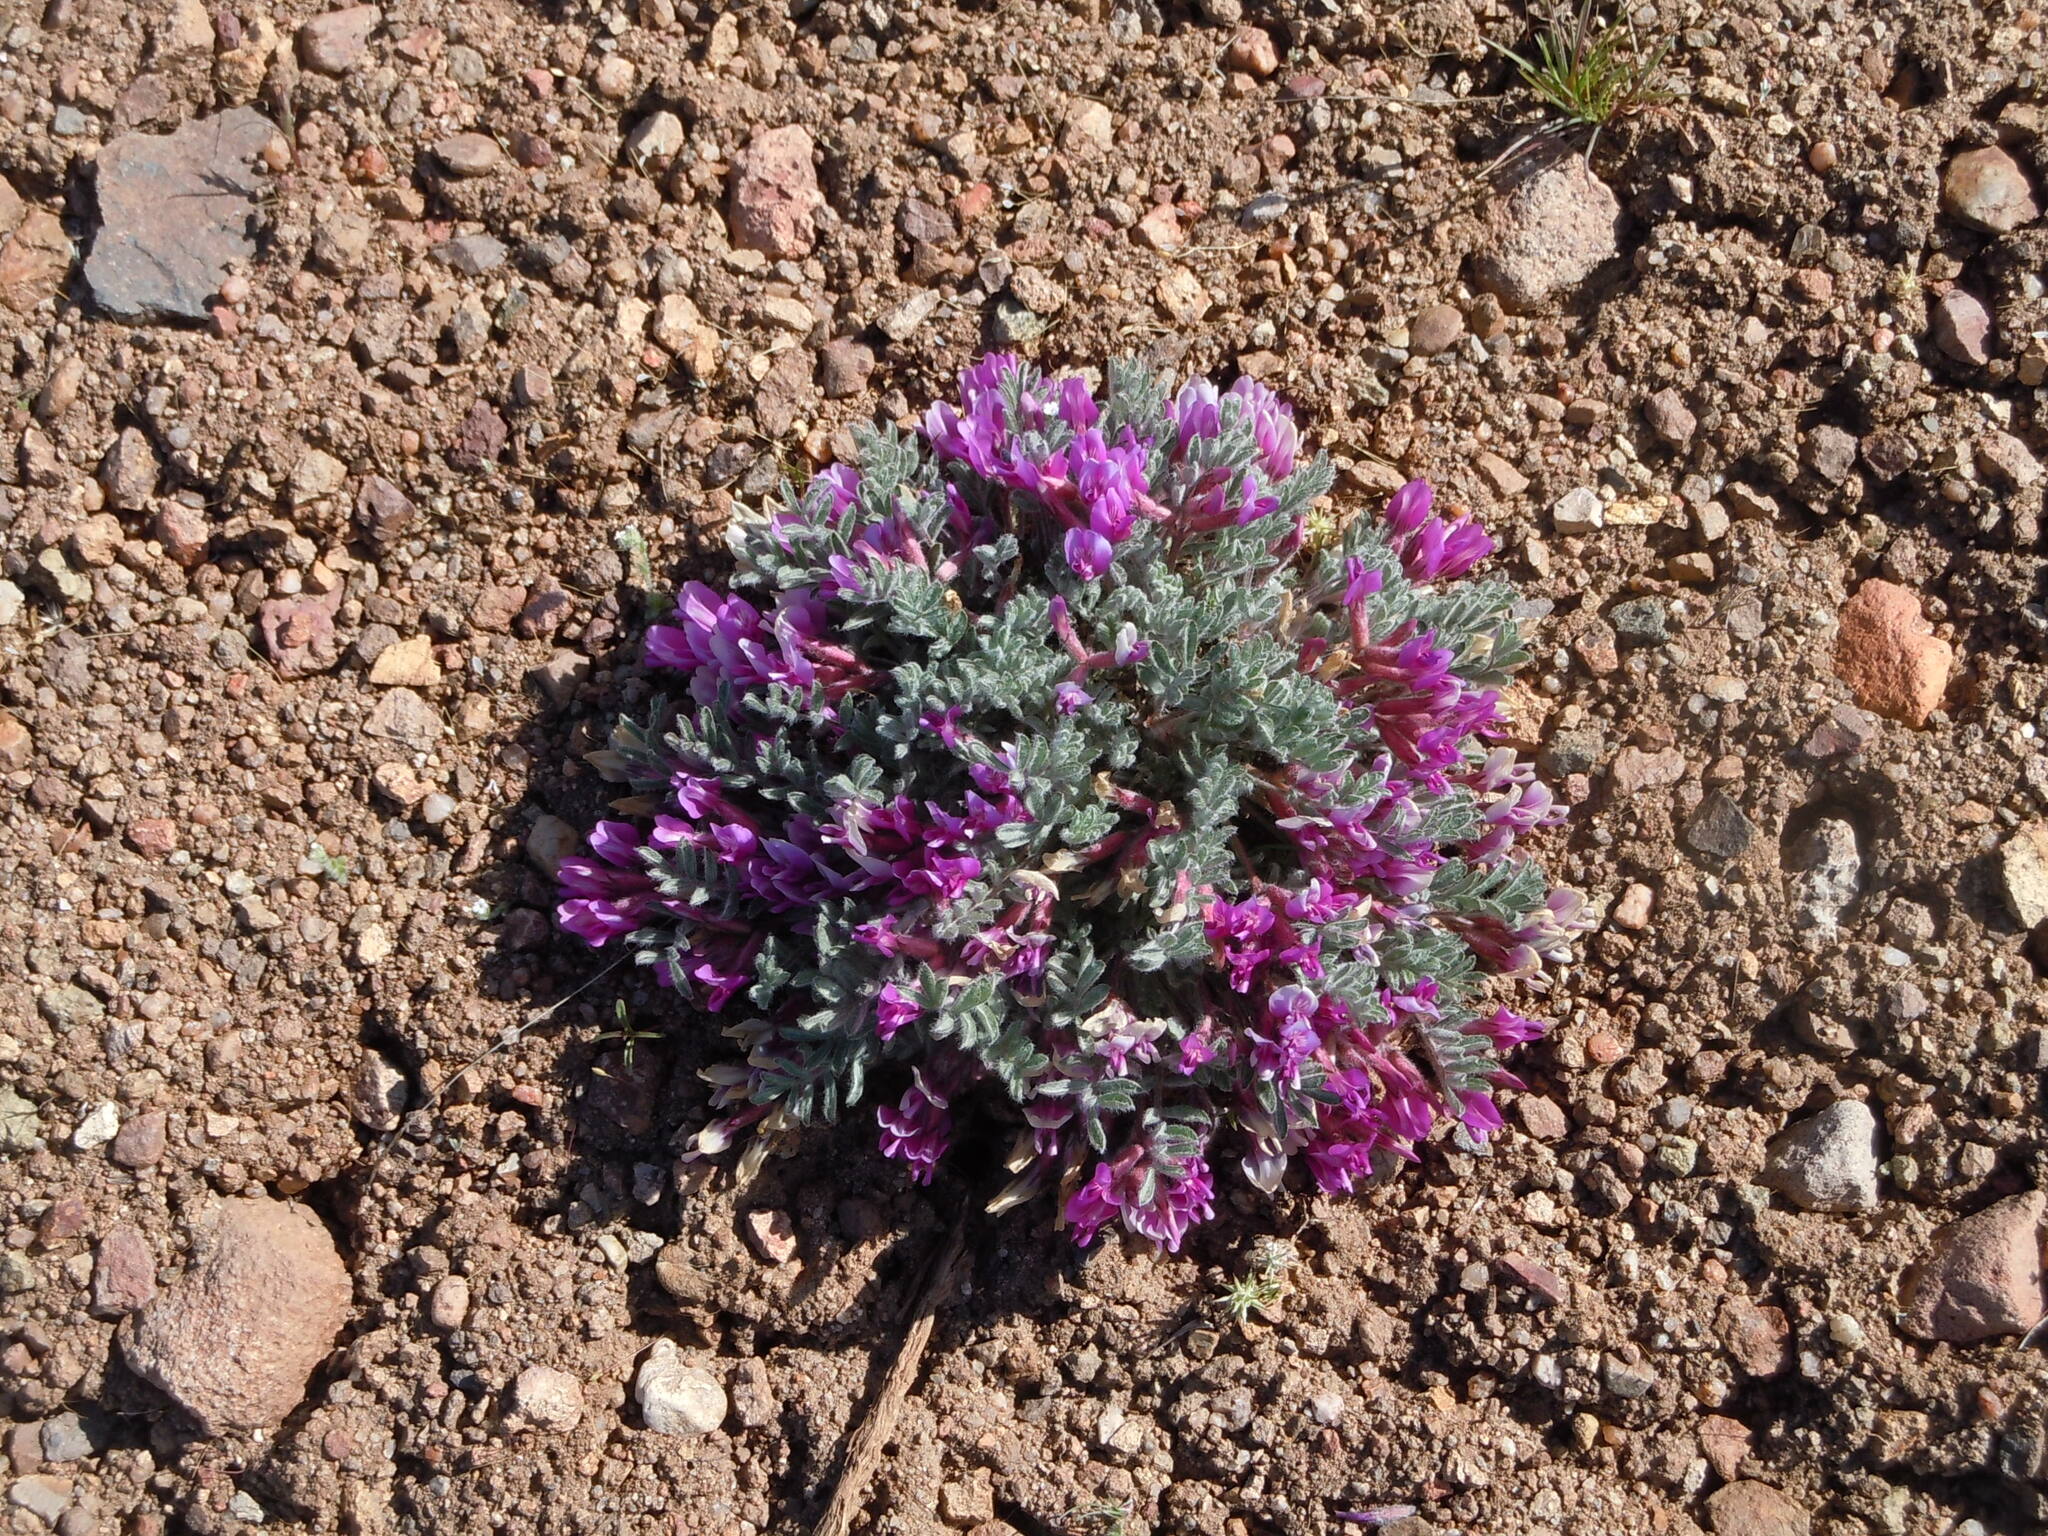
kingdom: Plantae
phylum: Tracheophyta
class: Magnoliopsida
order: Fabales
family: Fabaceae
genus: Astragalus
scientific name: Astragalus purshii
